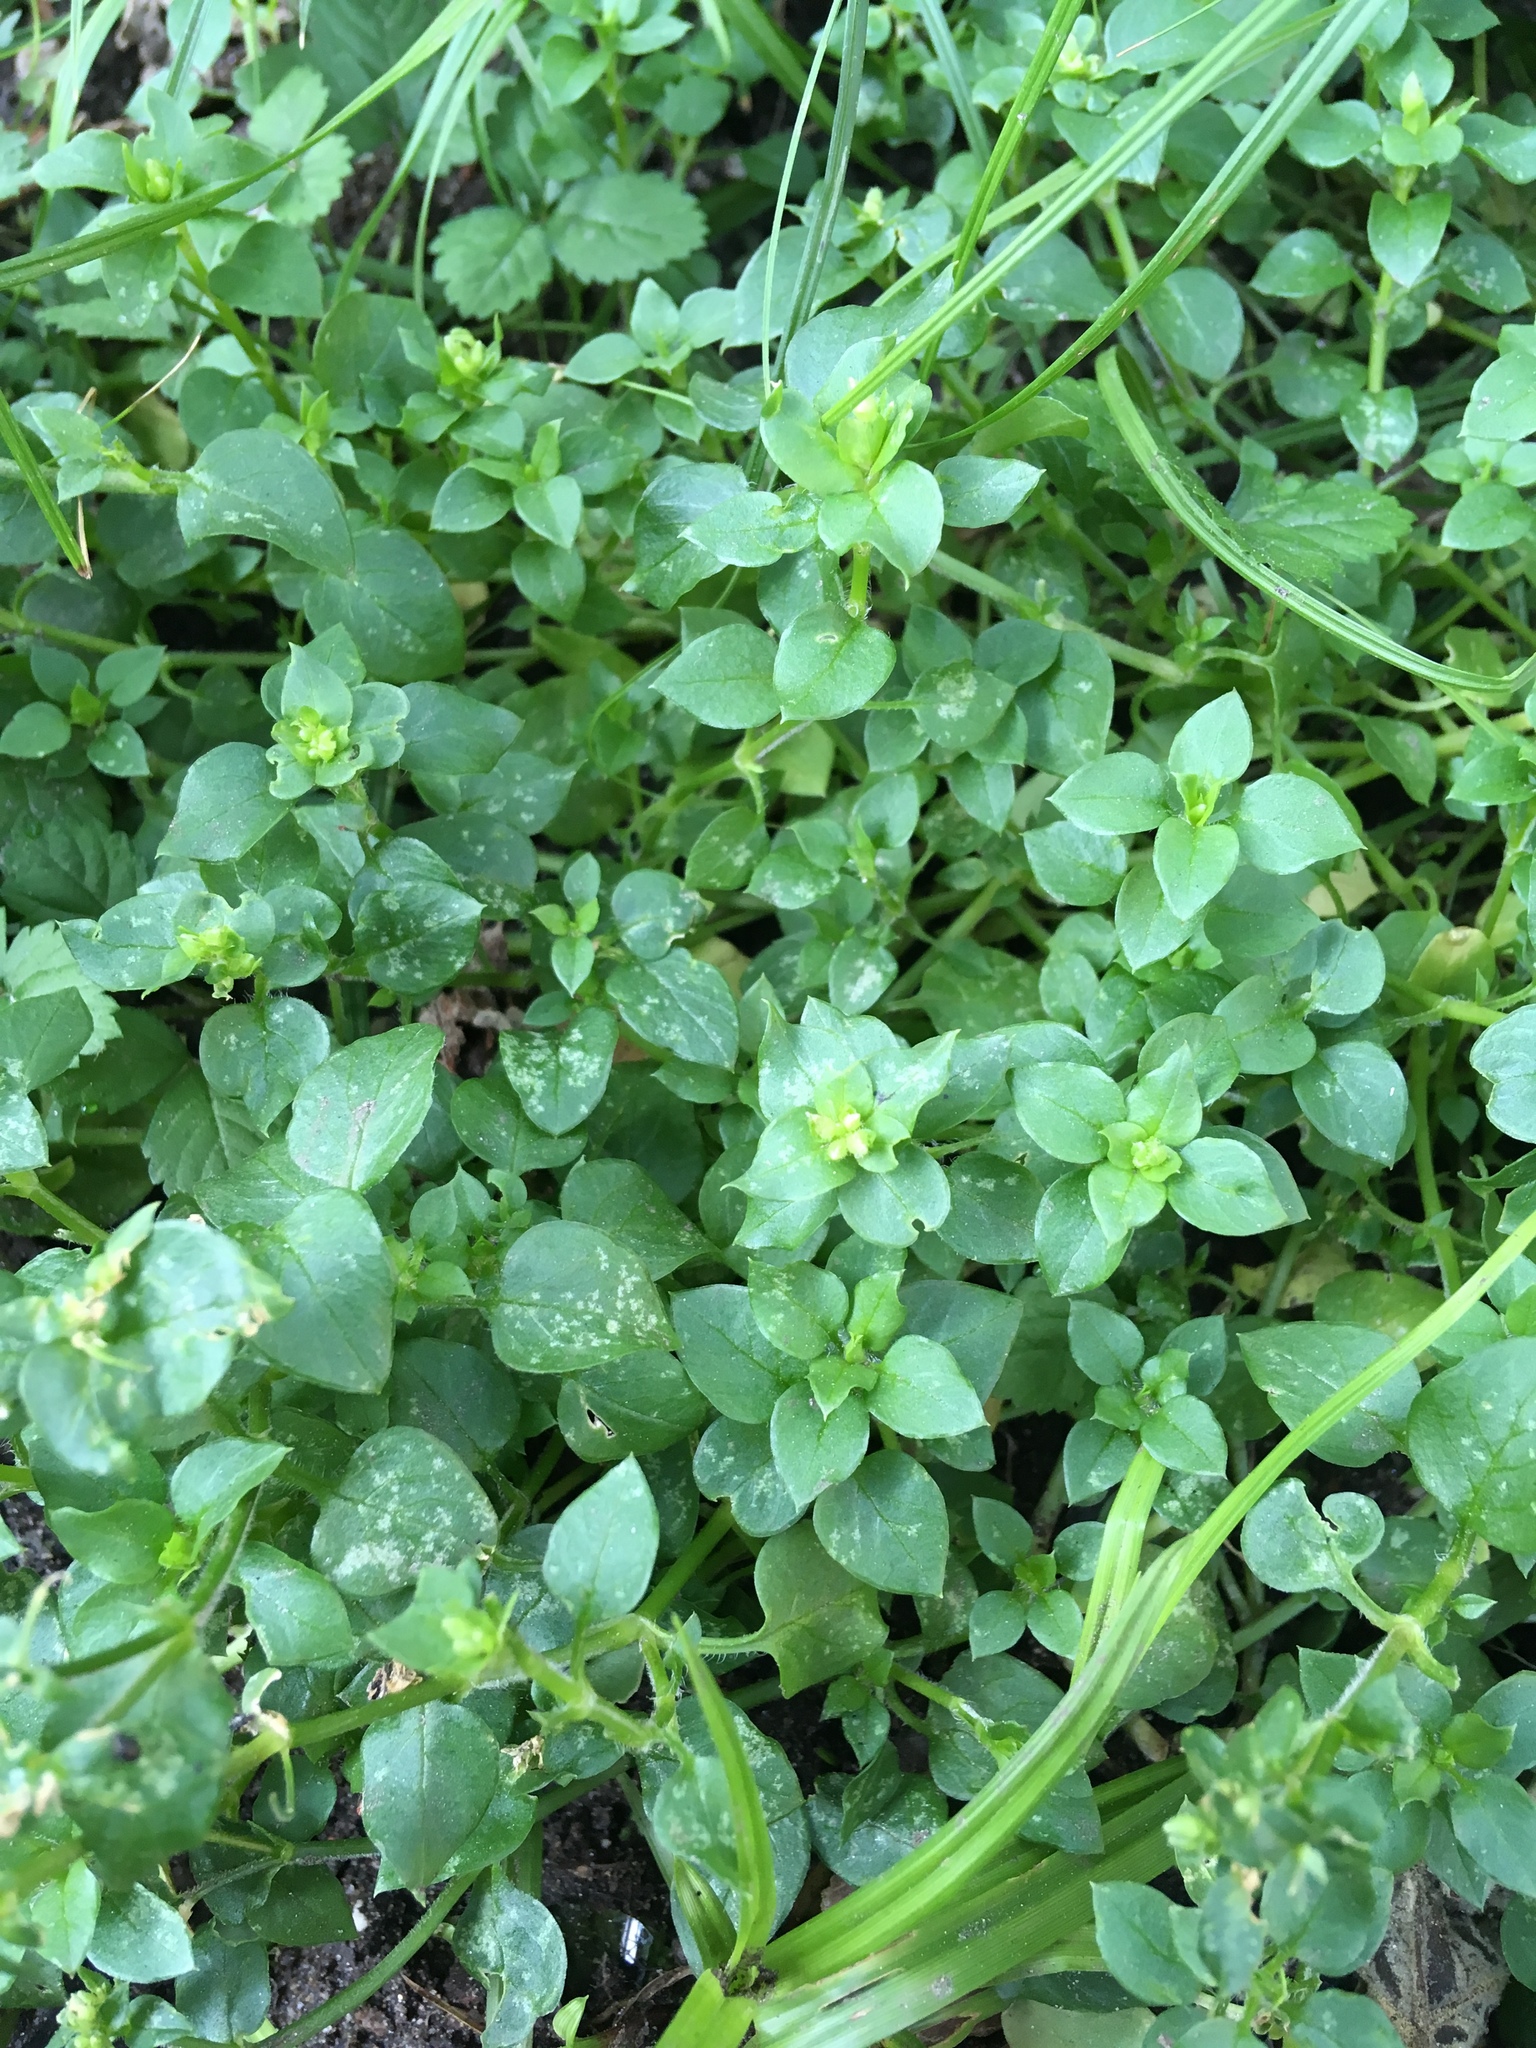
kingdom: Plantae
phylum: Tracheophyta
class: Magnoliopsida
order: Caryophyllales
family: Caryophyllaceae
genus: Stellaria
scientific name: Stellaria media
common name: Common chickweed
